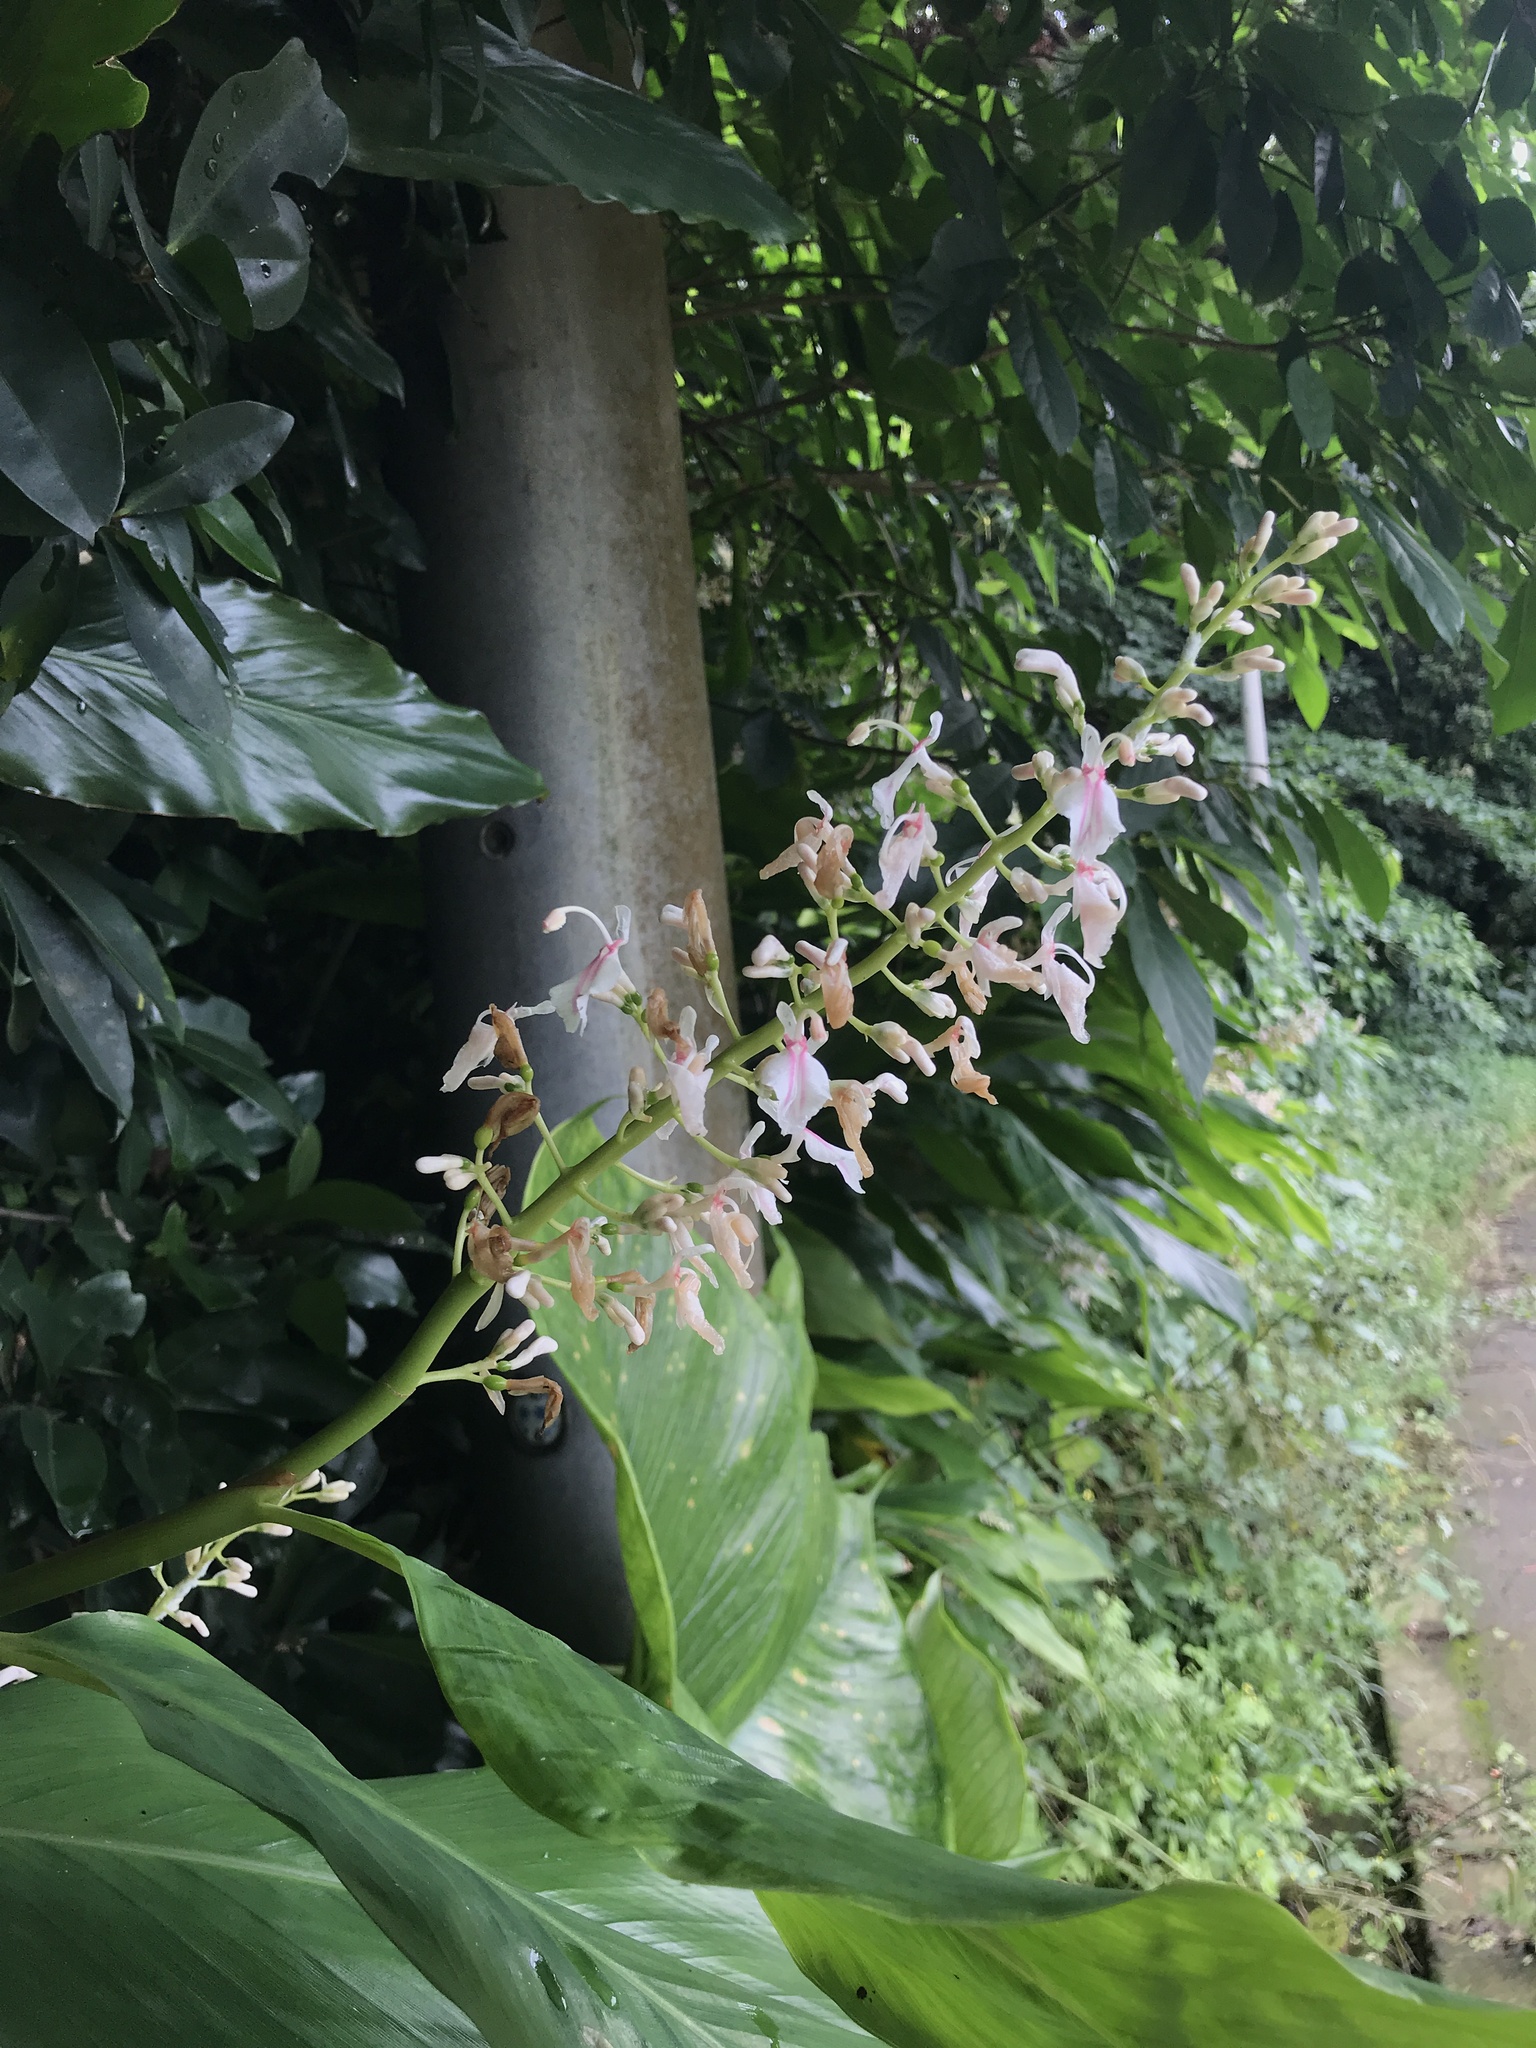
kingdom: Plantae
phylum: Tracheophyta
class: Liliopsida
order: Zingiberales
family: Zingiberaceae
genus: Alpinia
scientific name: Alpinia intermedia
